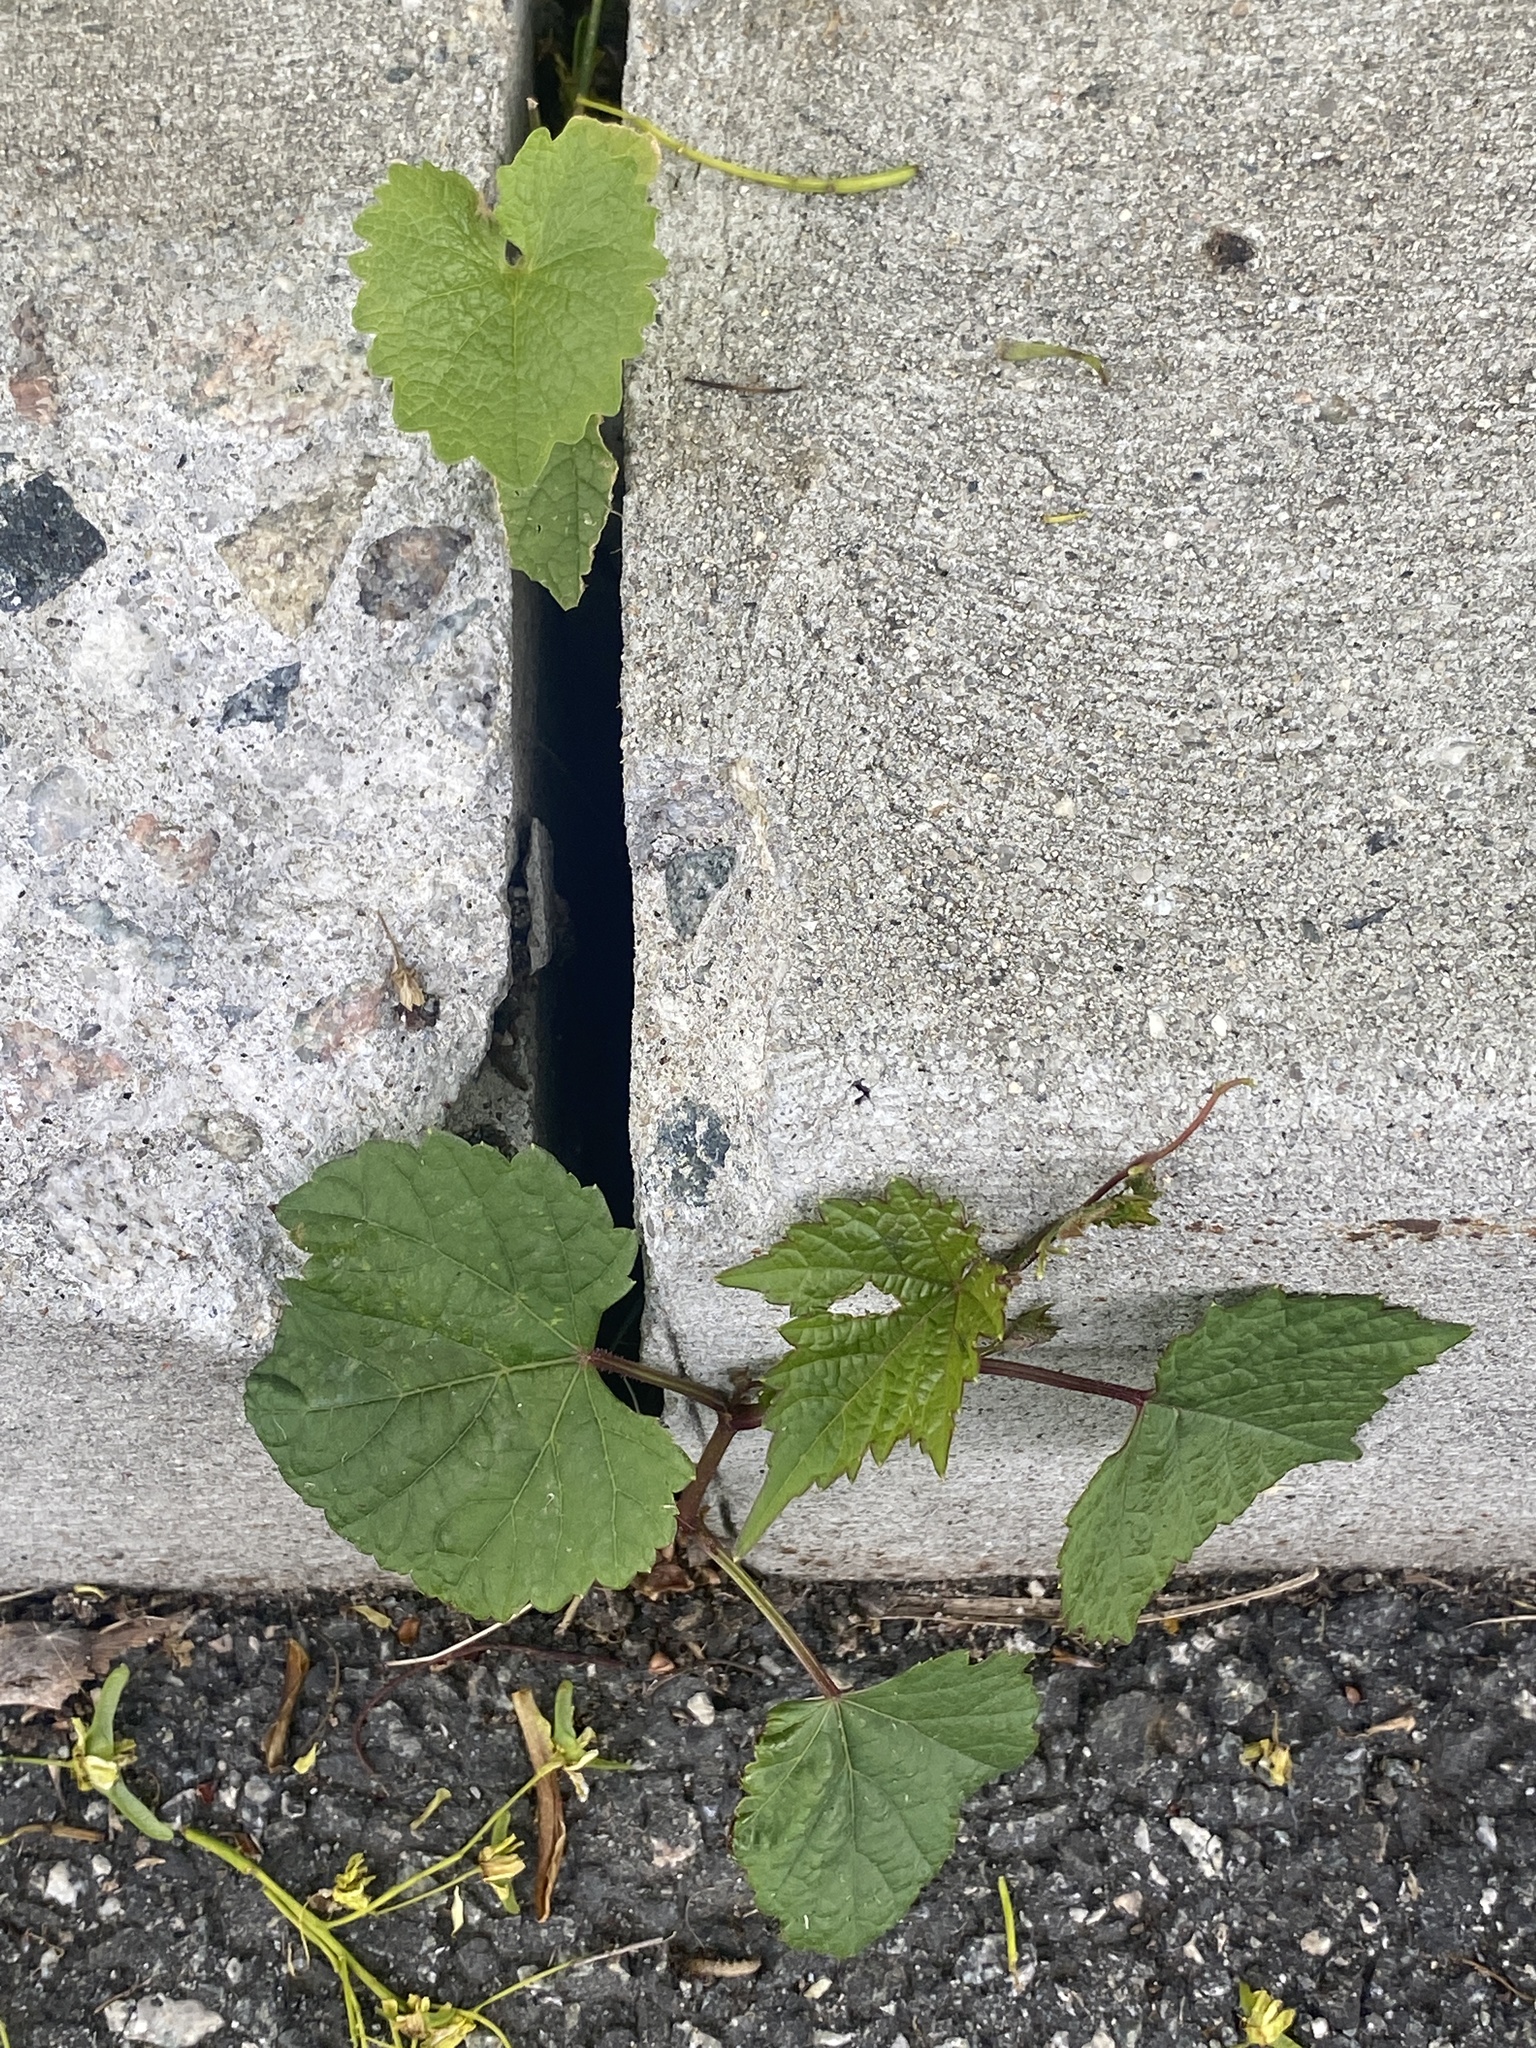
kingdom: Plantae
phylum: Tracheophyta
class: Magnoliopsida
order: Vitales
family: Vitaceae
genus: Ampelopsis
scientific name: Ampelopsis glandulosa
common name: Amur peppervine
